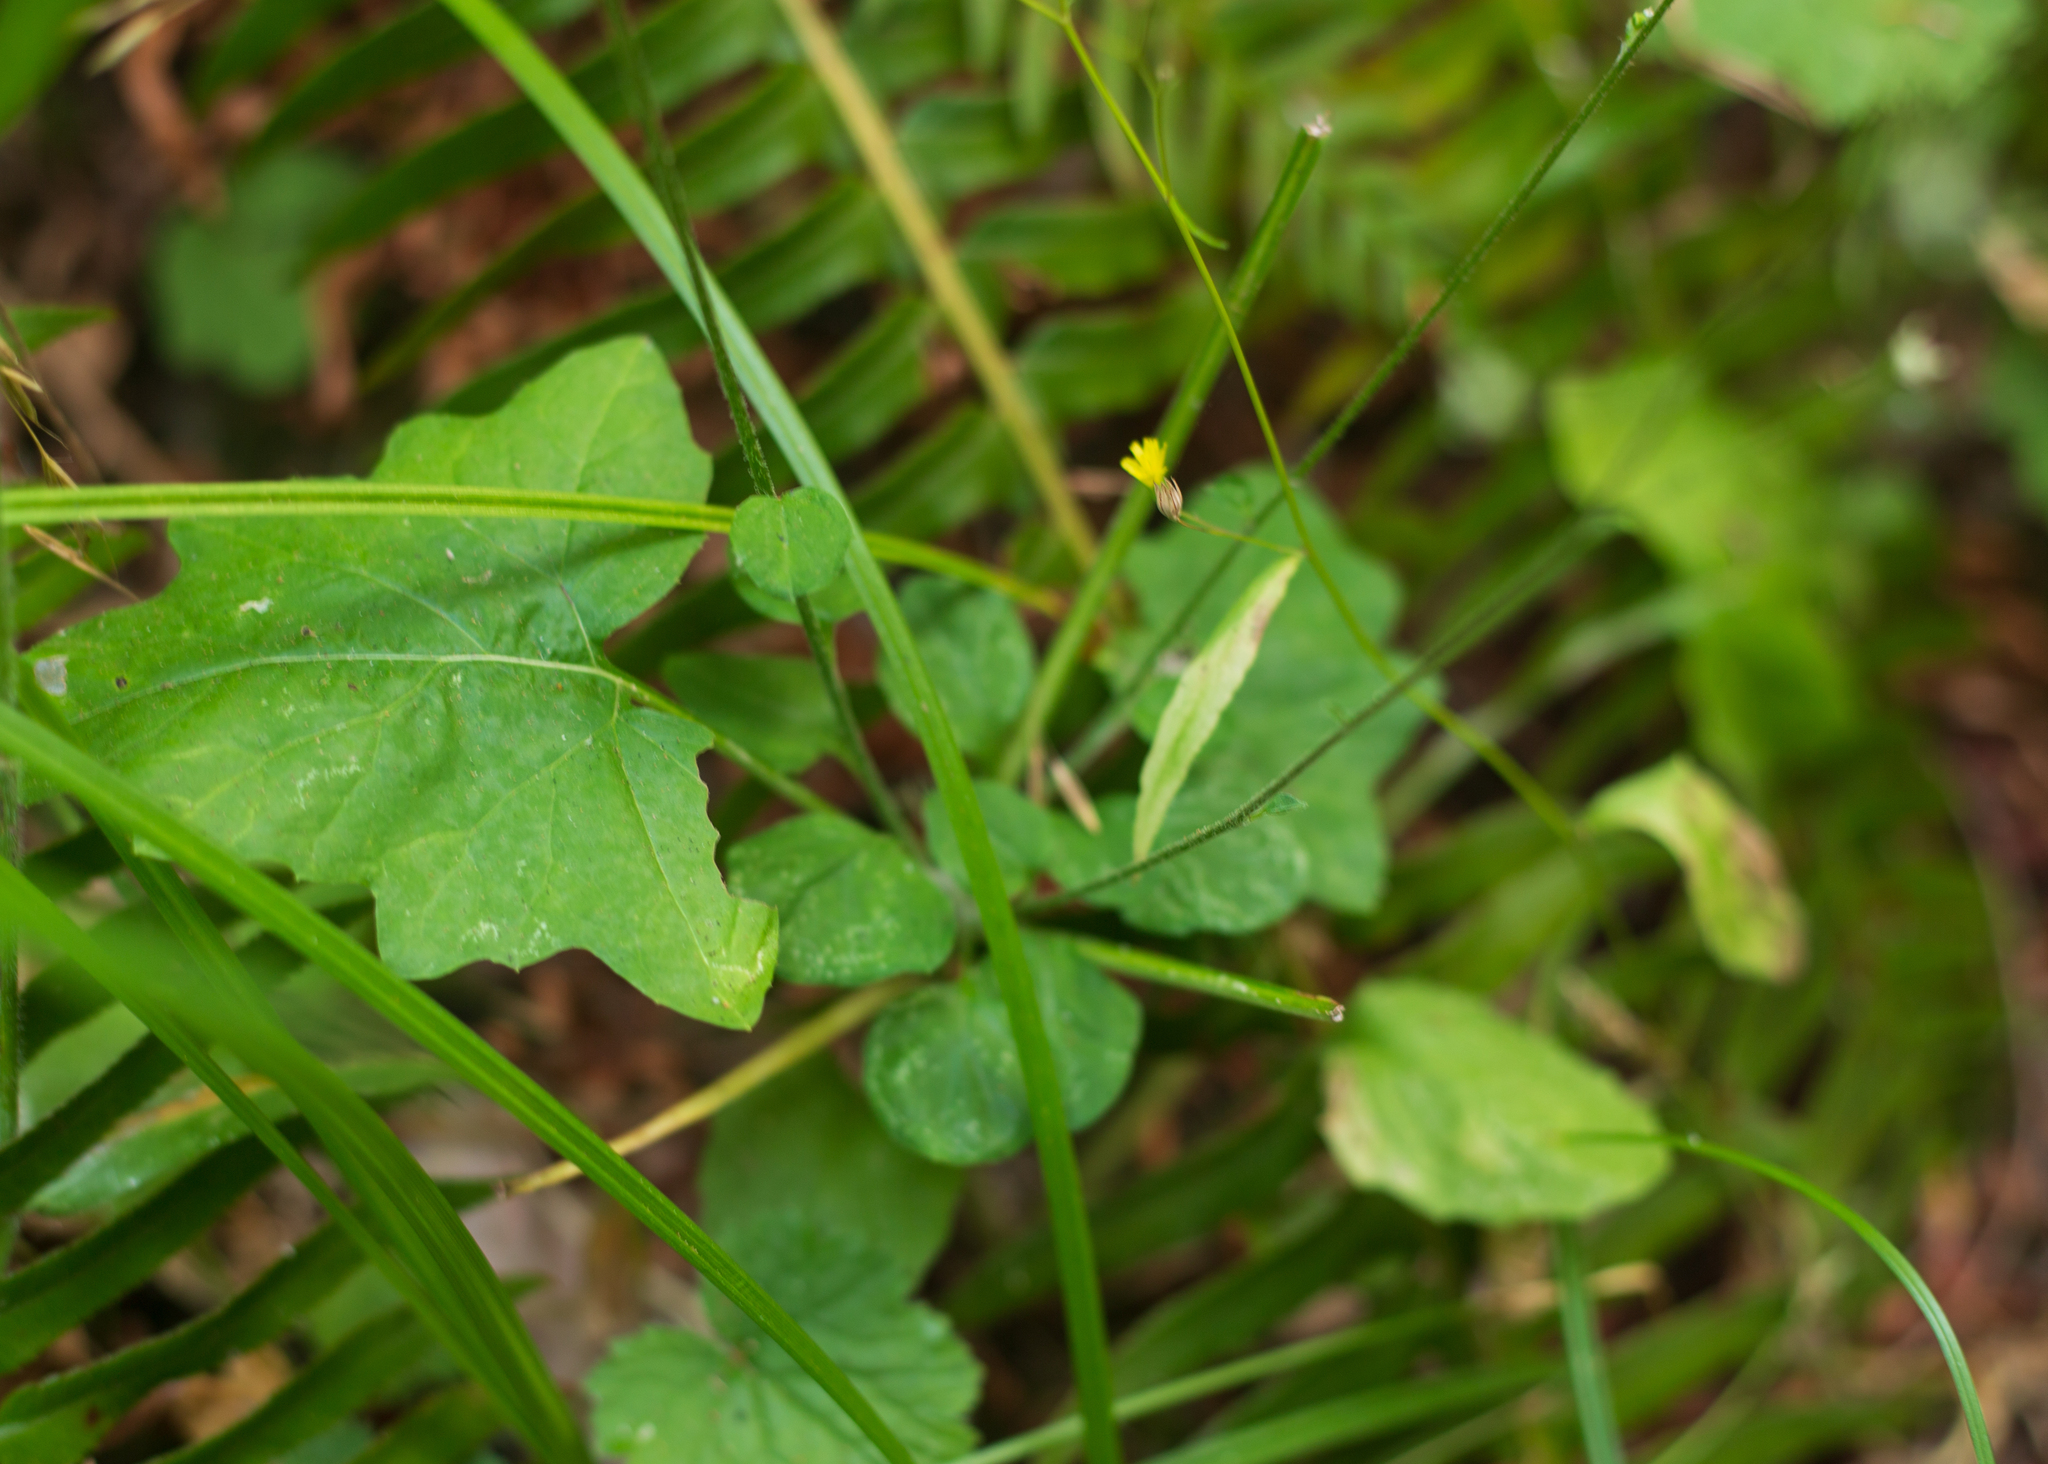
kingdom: Plantae
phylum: Tracheophyta
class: Magnoliopsida
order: Asterales
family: Asteraceae
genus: Adenocaulon
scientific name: Adenocaulon bicolor
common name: Trailplant
